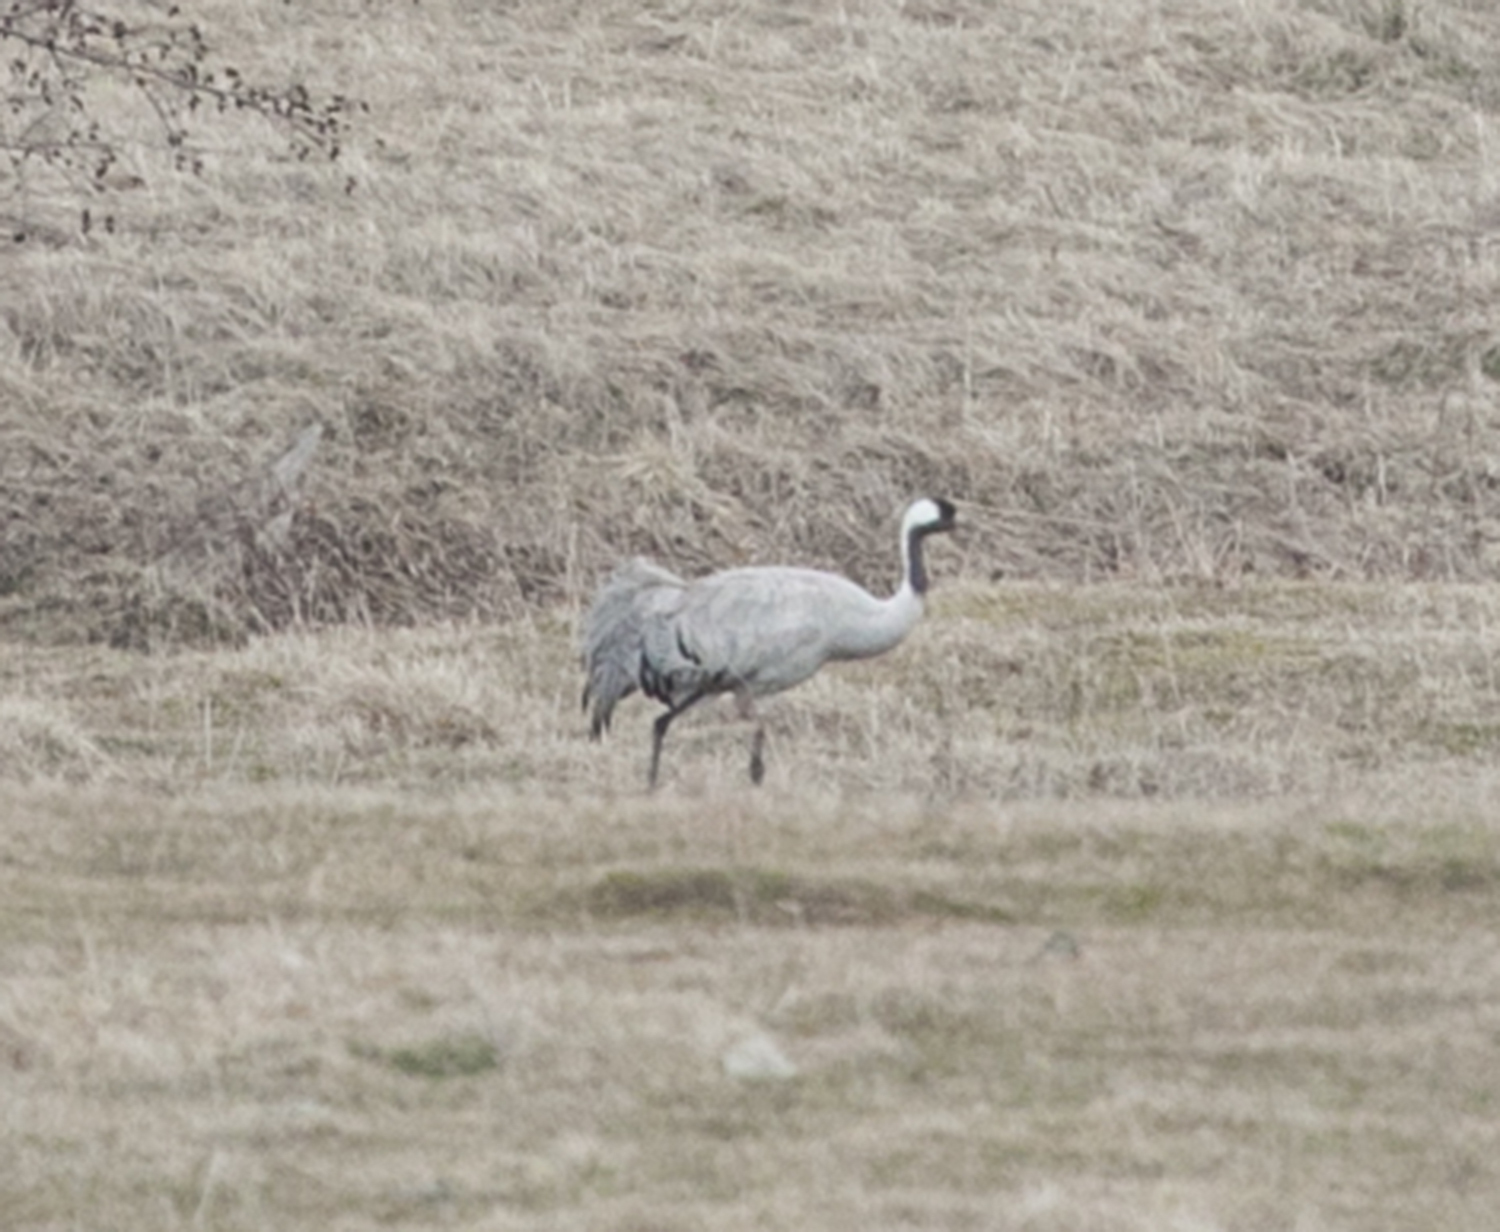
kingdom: Animalia
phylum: Chordata
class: Aves
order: Gruiformes
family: Gruidae
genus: Grus
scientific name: Grus grus
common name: Common crane
